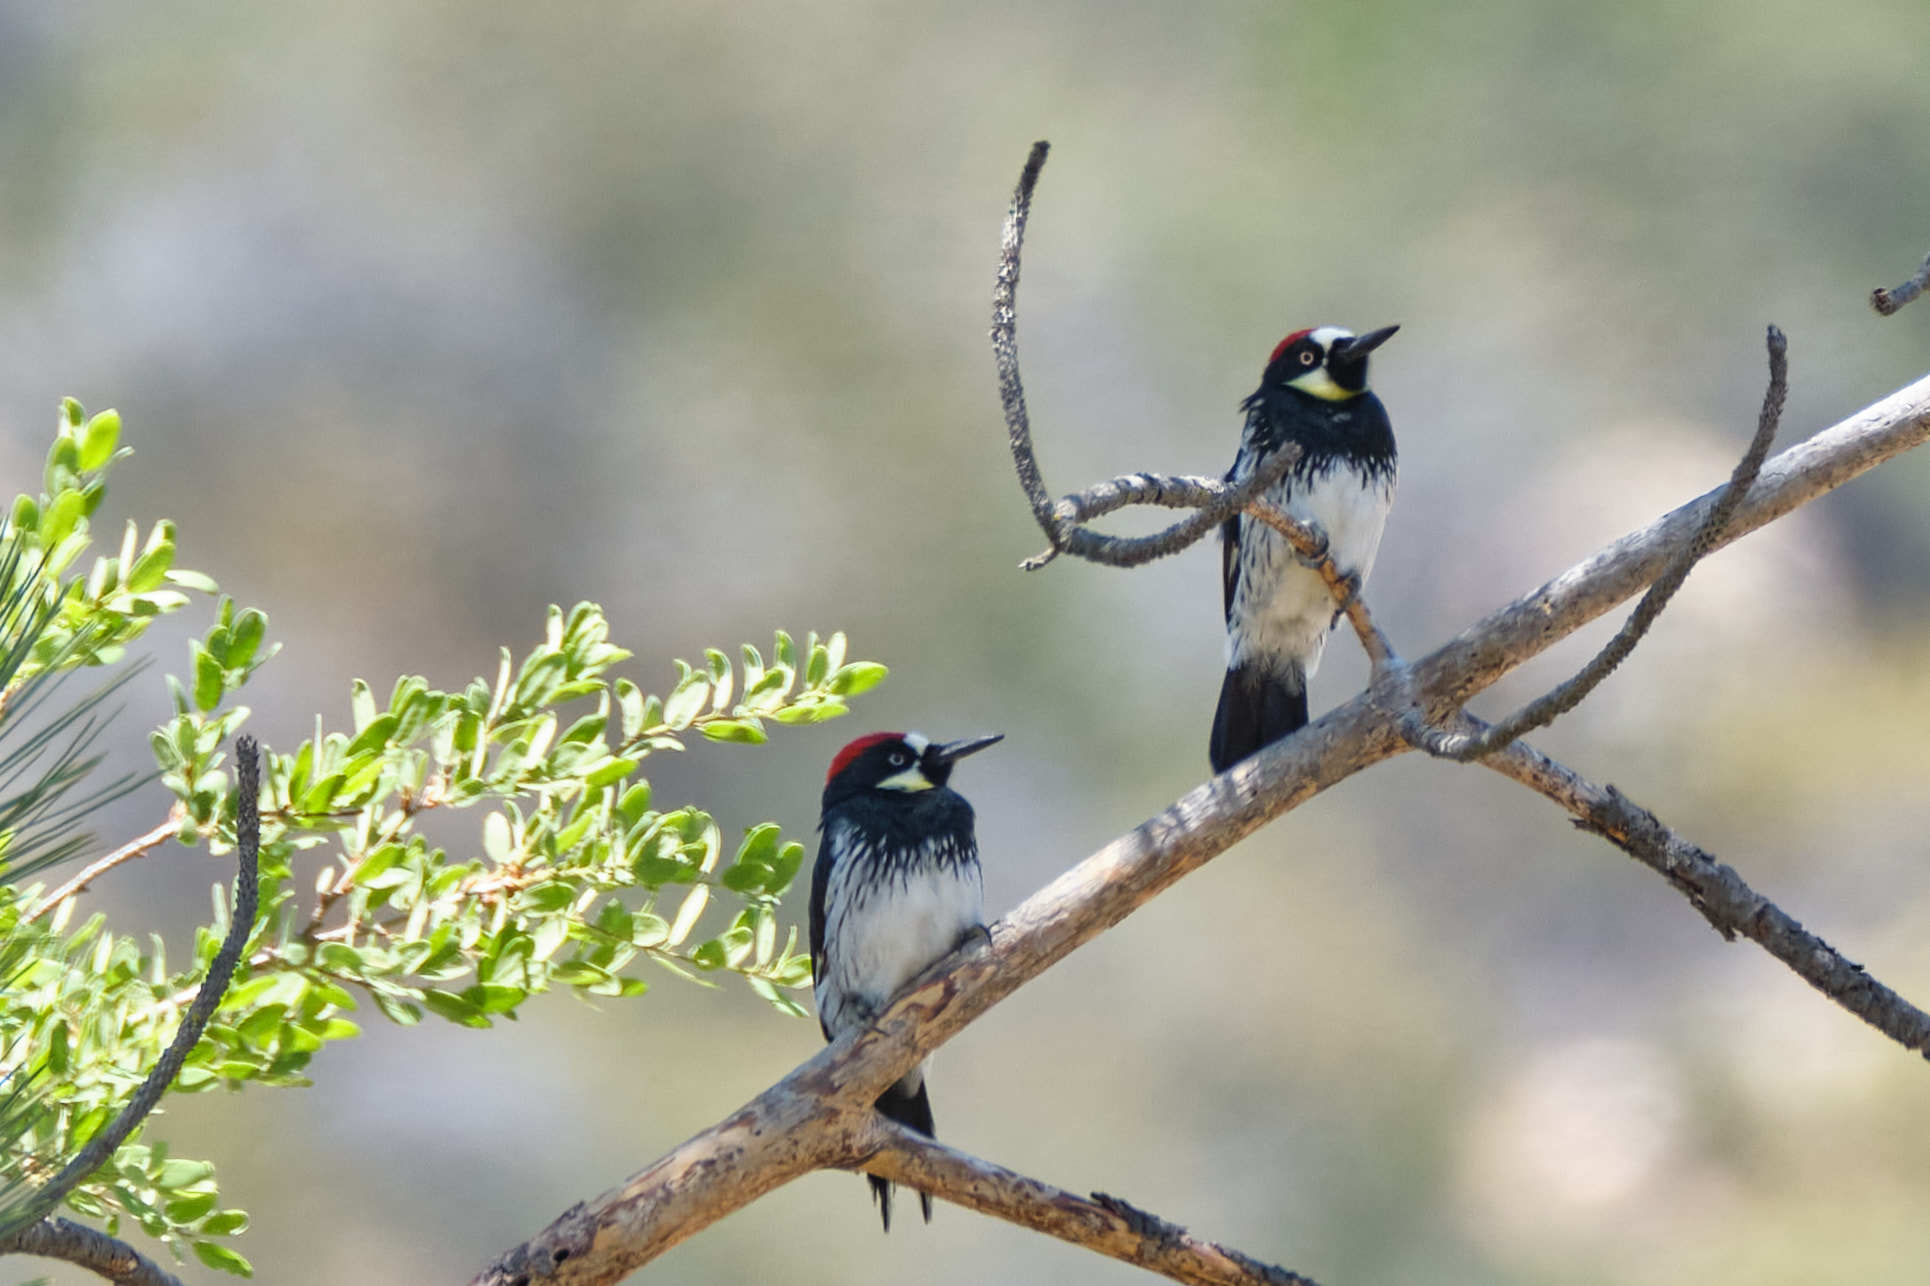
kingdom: Animalia
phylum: Chordata
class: Aves
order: Piciformes
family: Picidae
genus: Melanerpes
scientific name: Melanerpes formicivorus
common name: Acorn woodpecker
